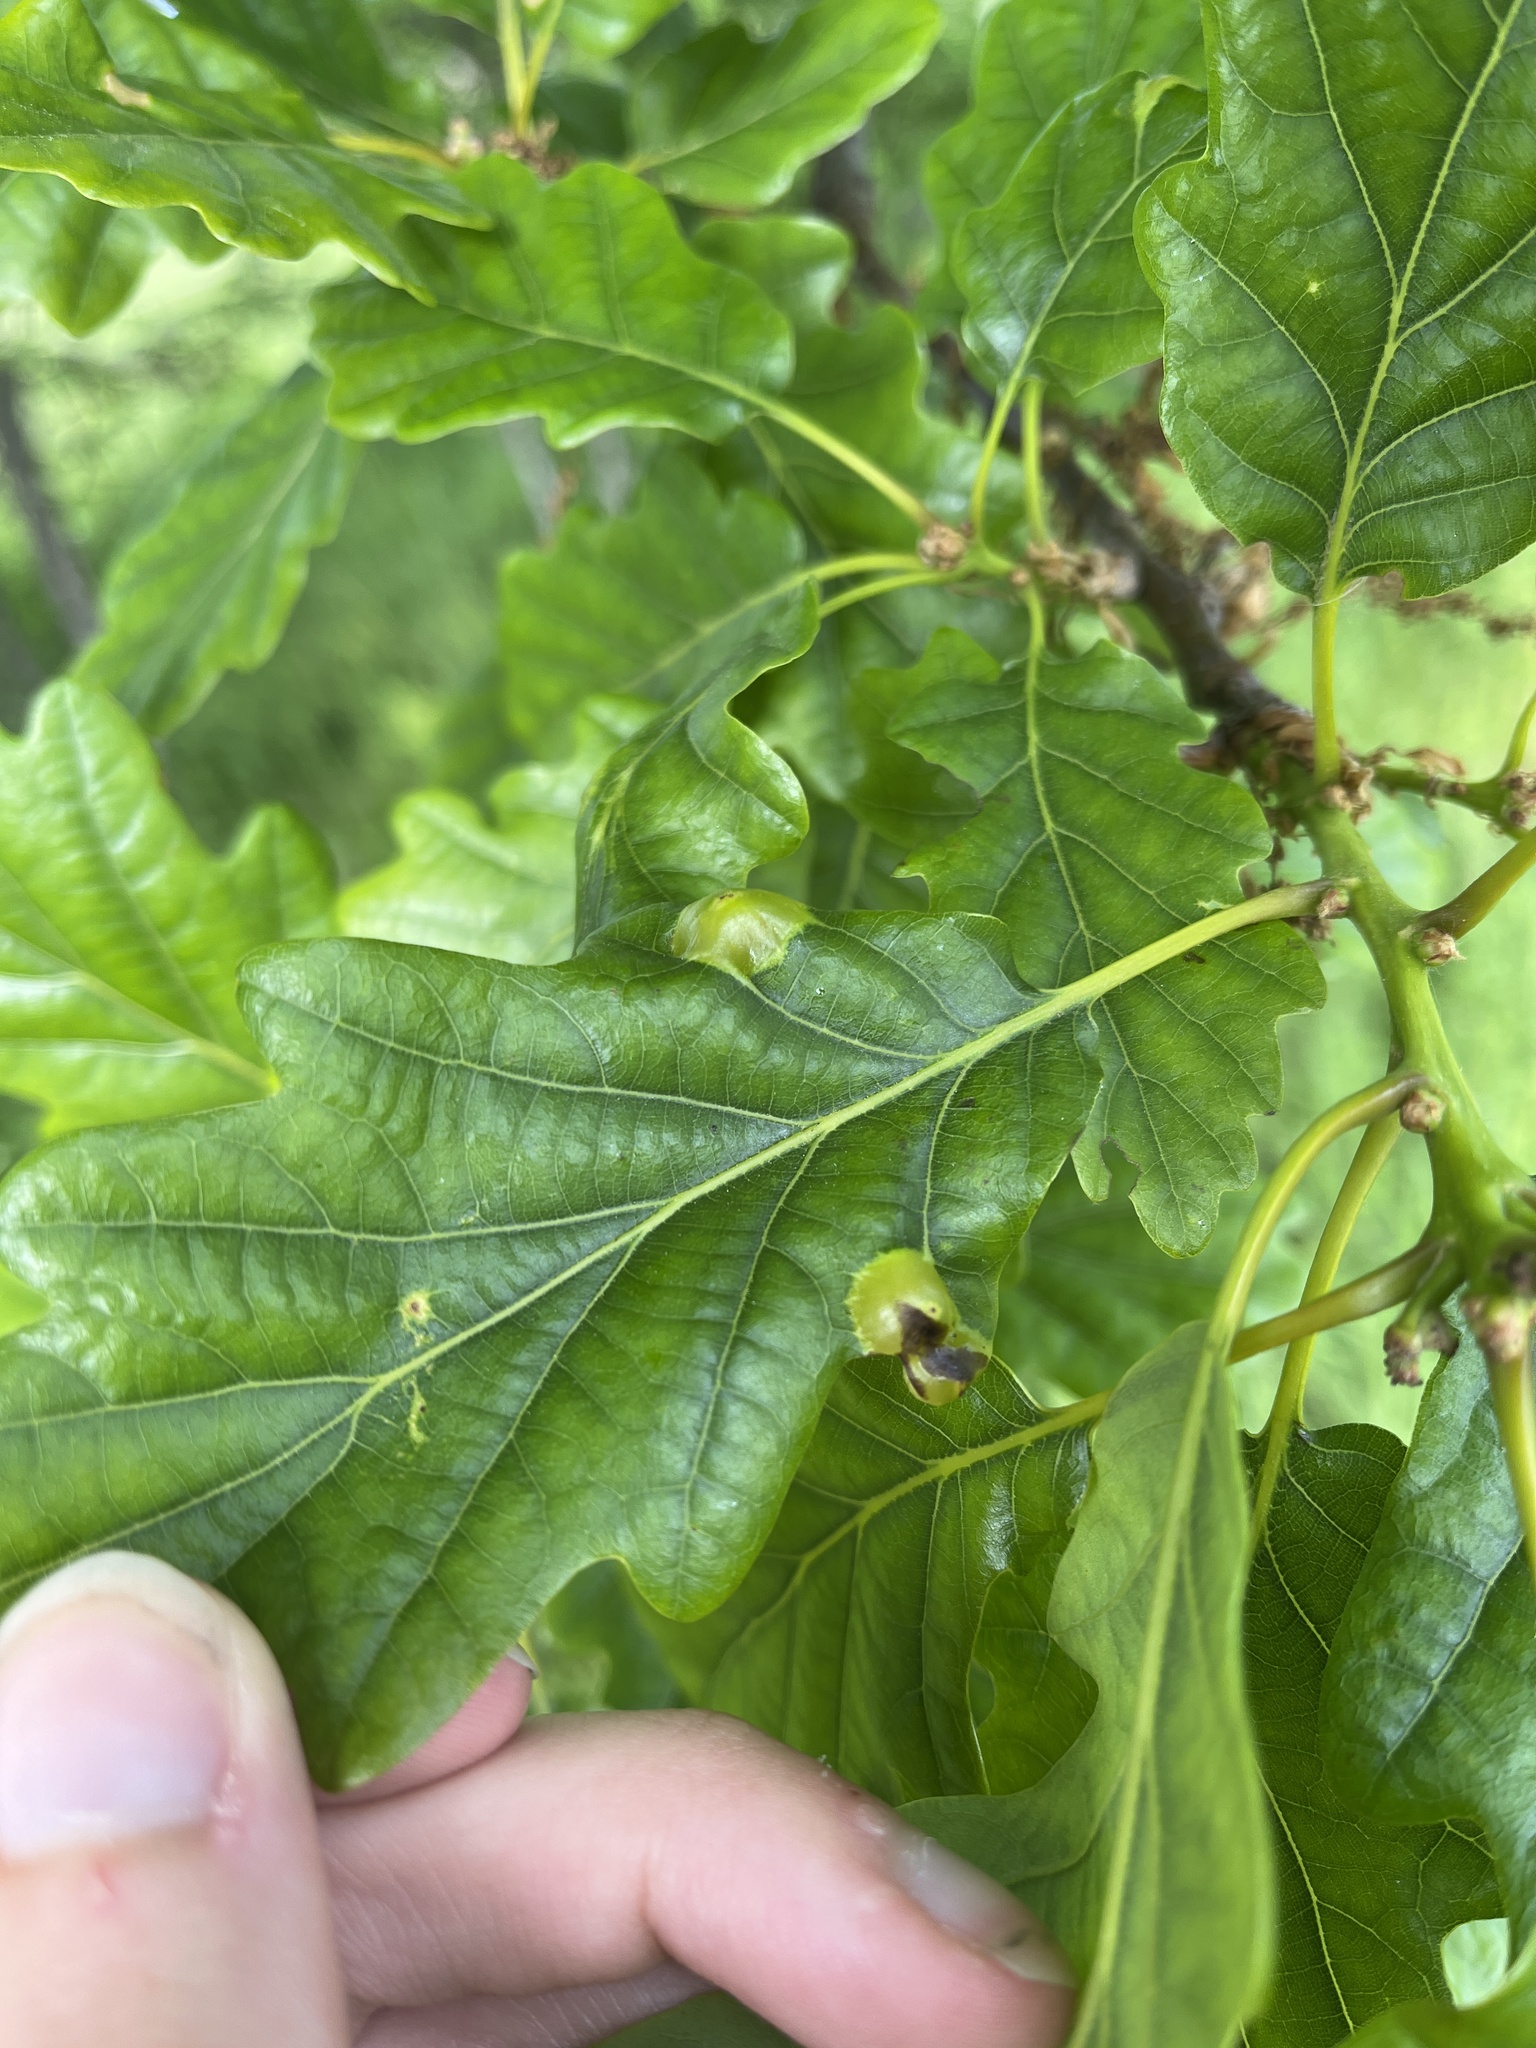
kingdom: Animalia
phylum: Arthropoda
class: Insecta
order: Hymenoptera
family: Cynipidae
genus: Andricus
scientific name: Andricus curvator
